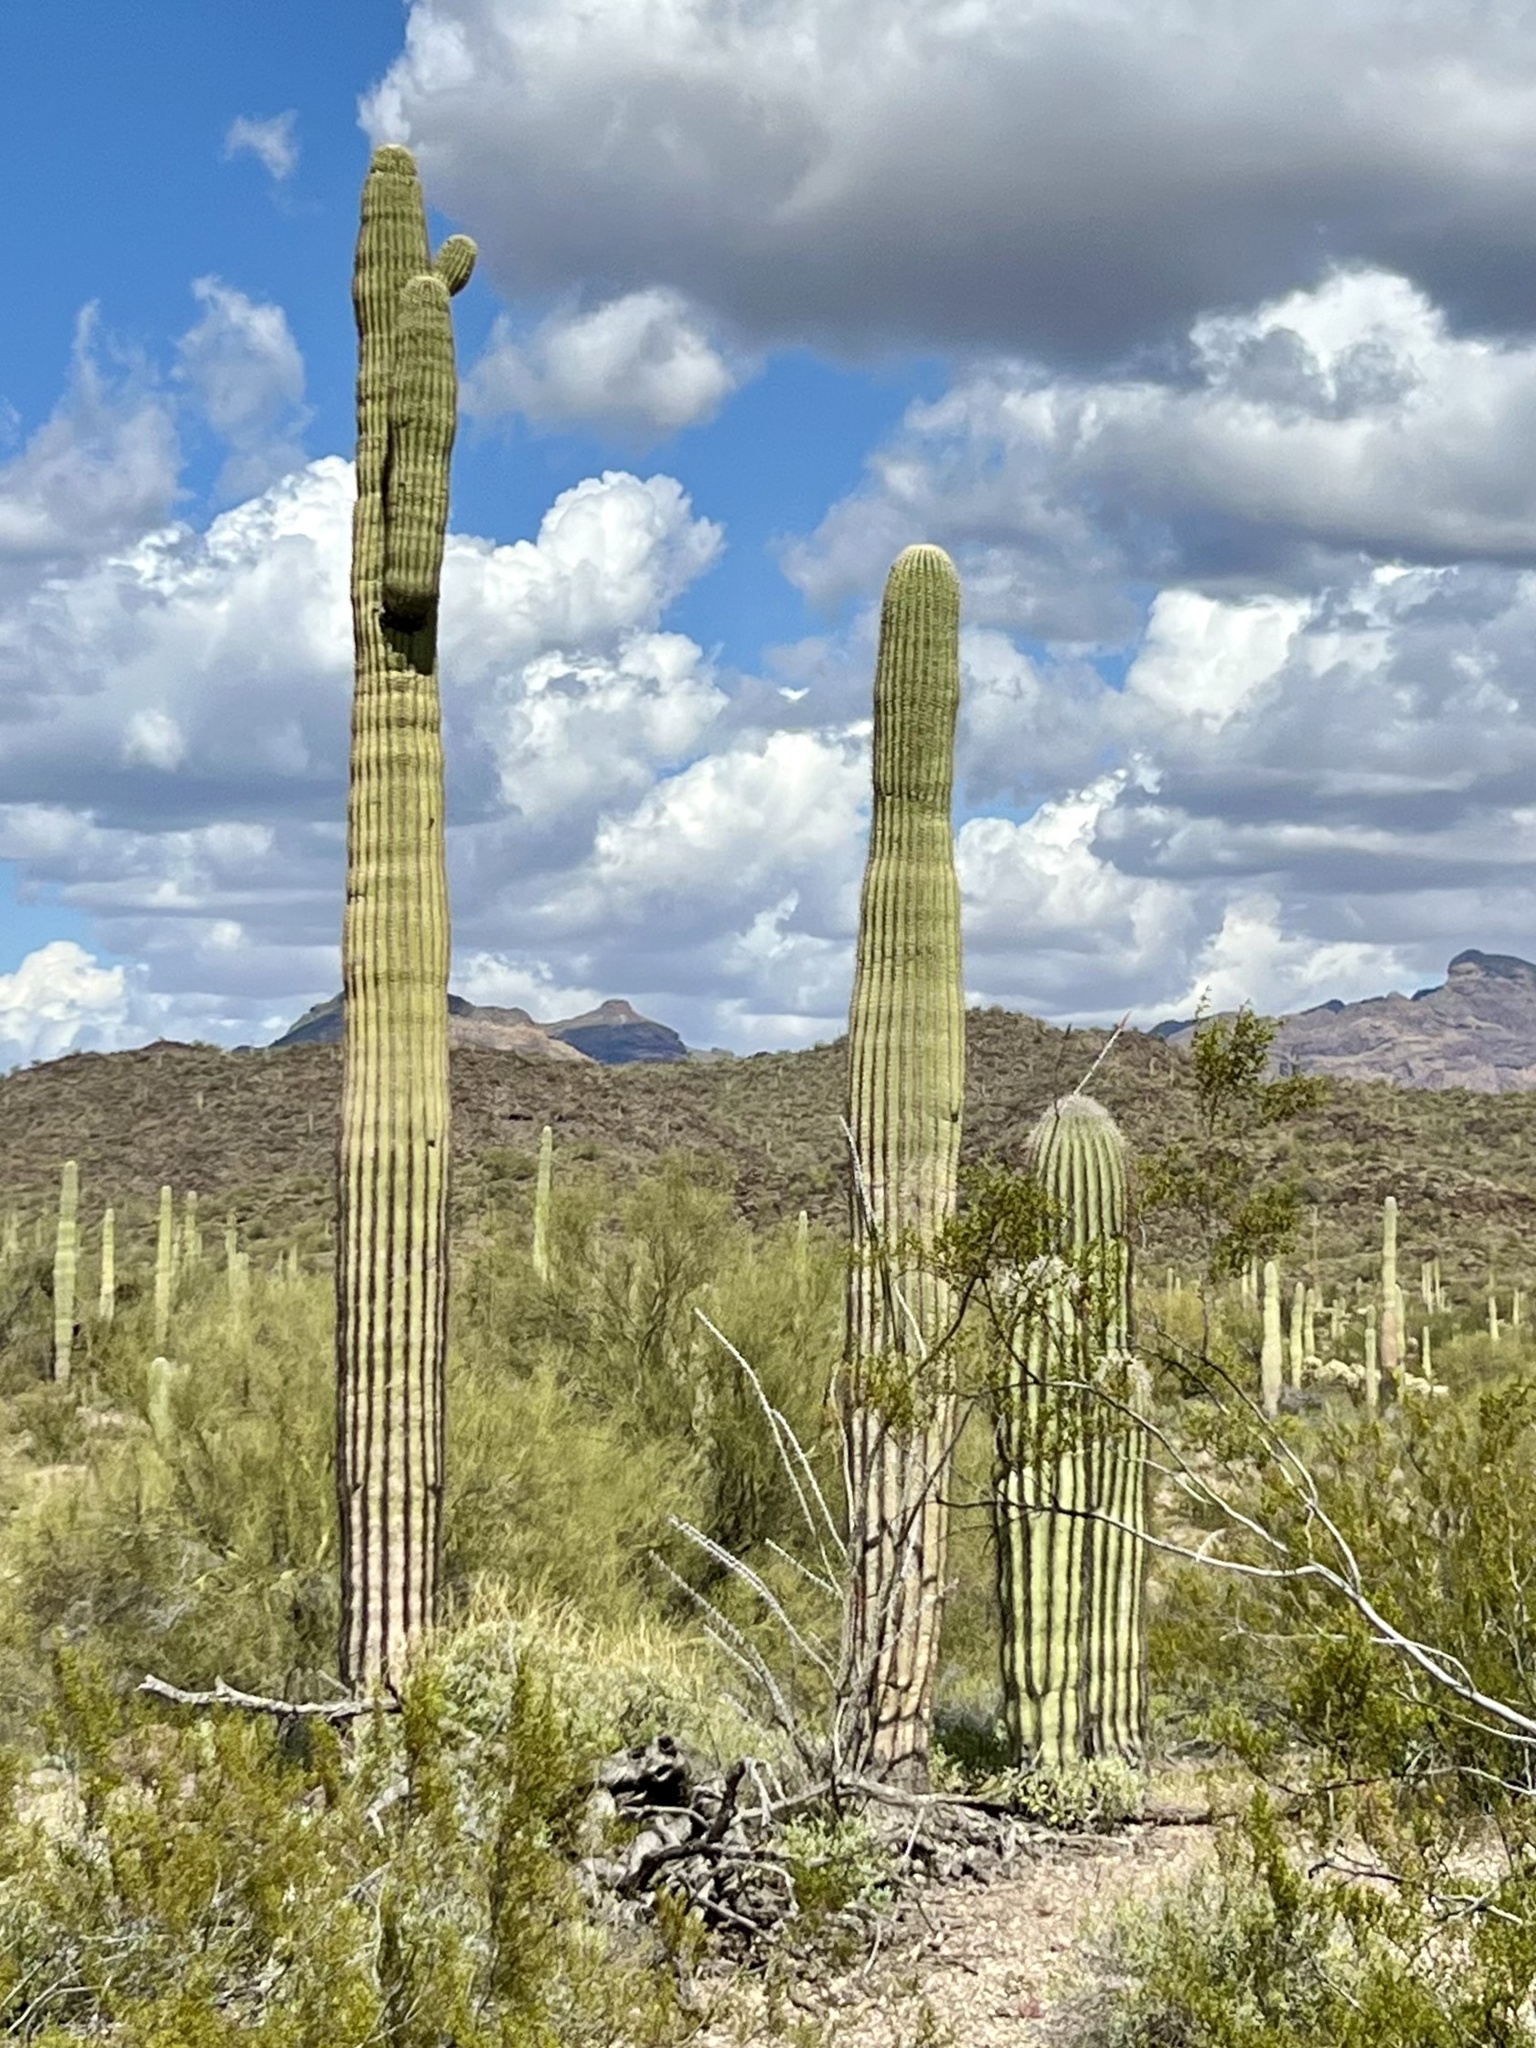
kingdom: Plantae
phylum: Tracheophyta
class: Magnoliopsida
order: Caryophyllales
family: Cactaceae
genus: Carnegiea
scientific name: Carnegiea gigantea
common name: Saguaro
